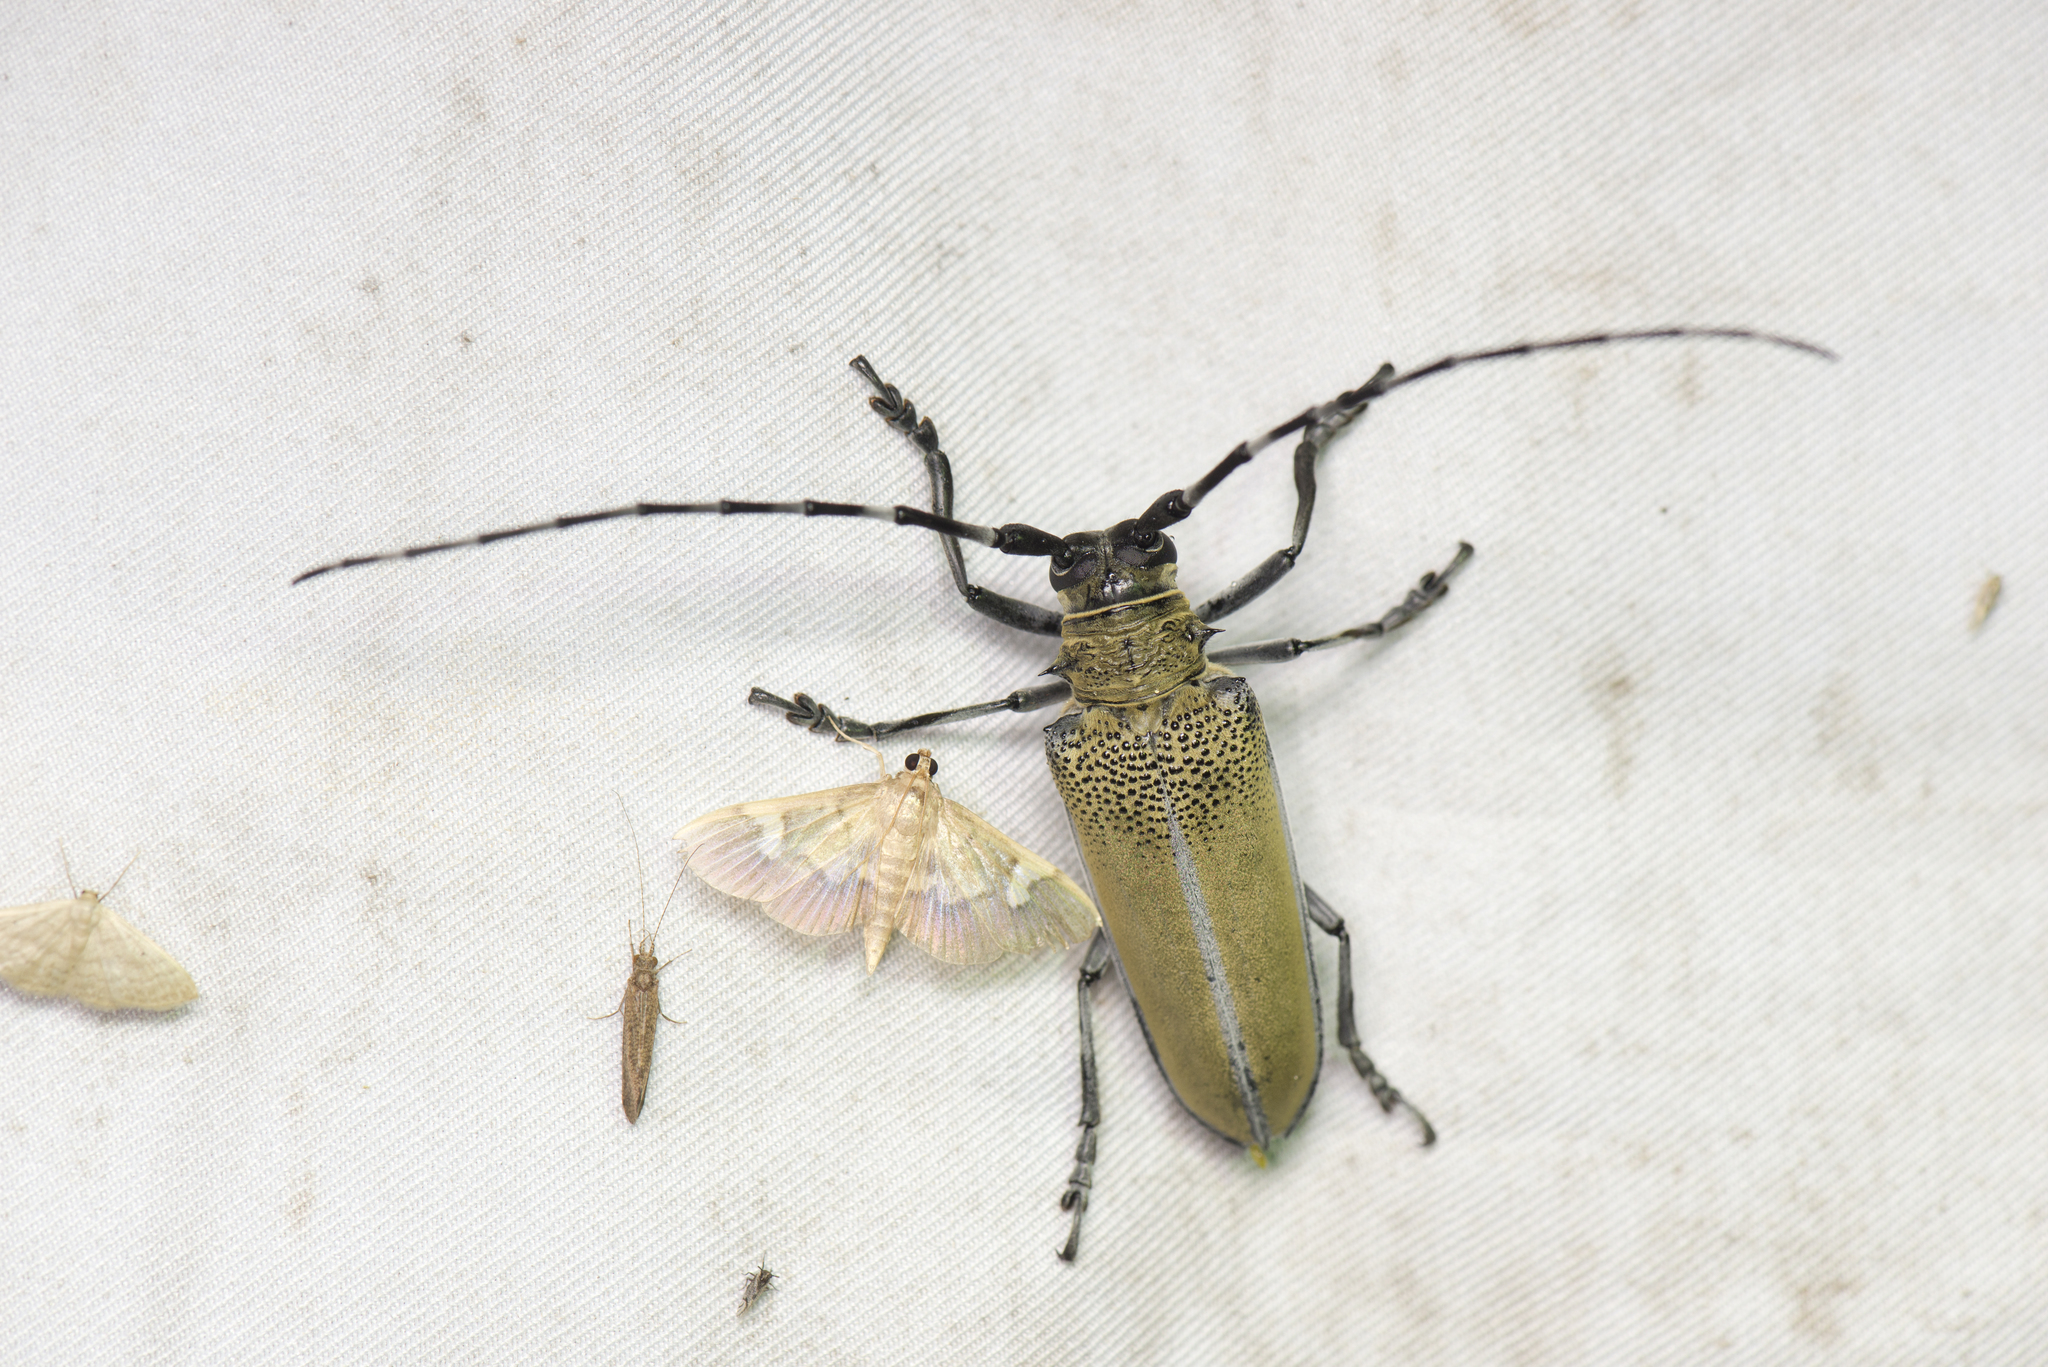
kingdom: Animalia
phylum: Arthropoda
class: Insecta
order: Coleoptera
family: Cerambycidae
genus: Apriona
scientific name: Apriona rugicollis
